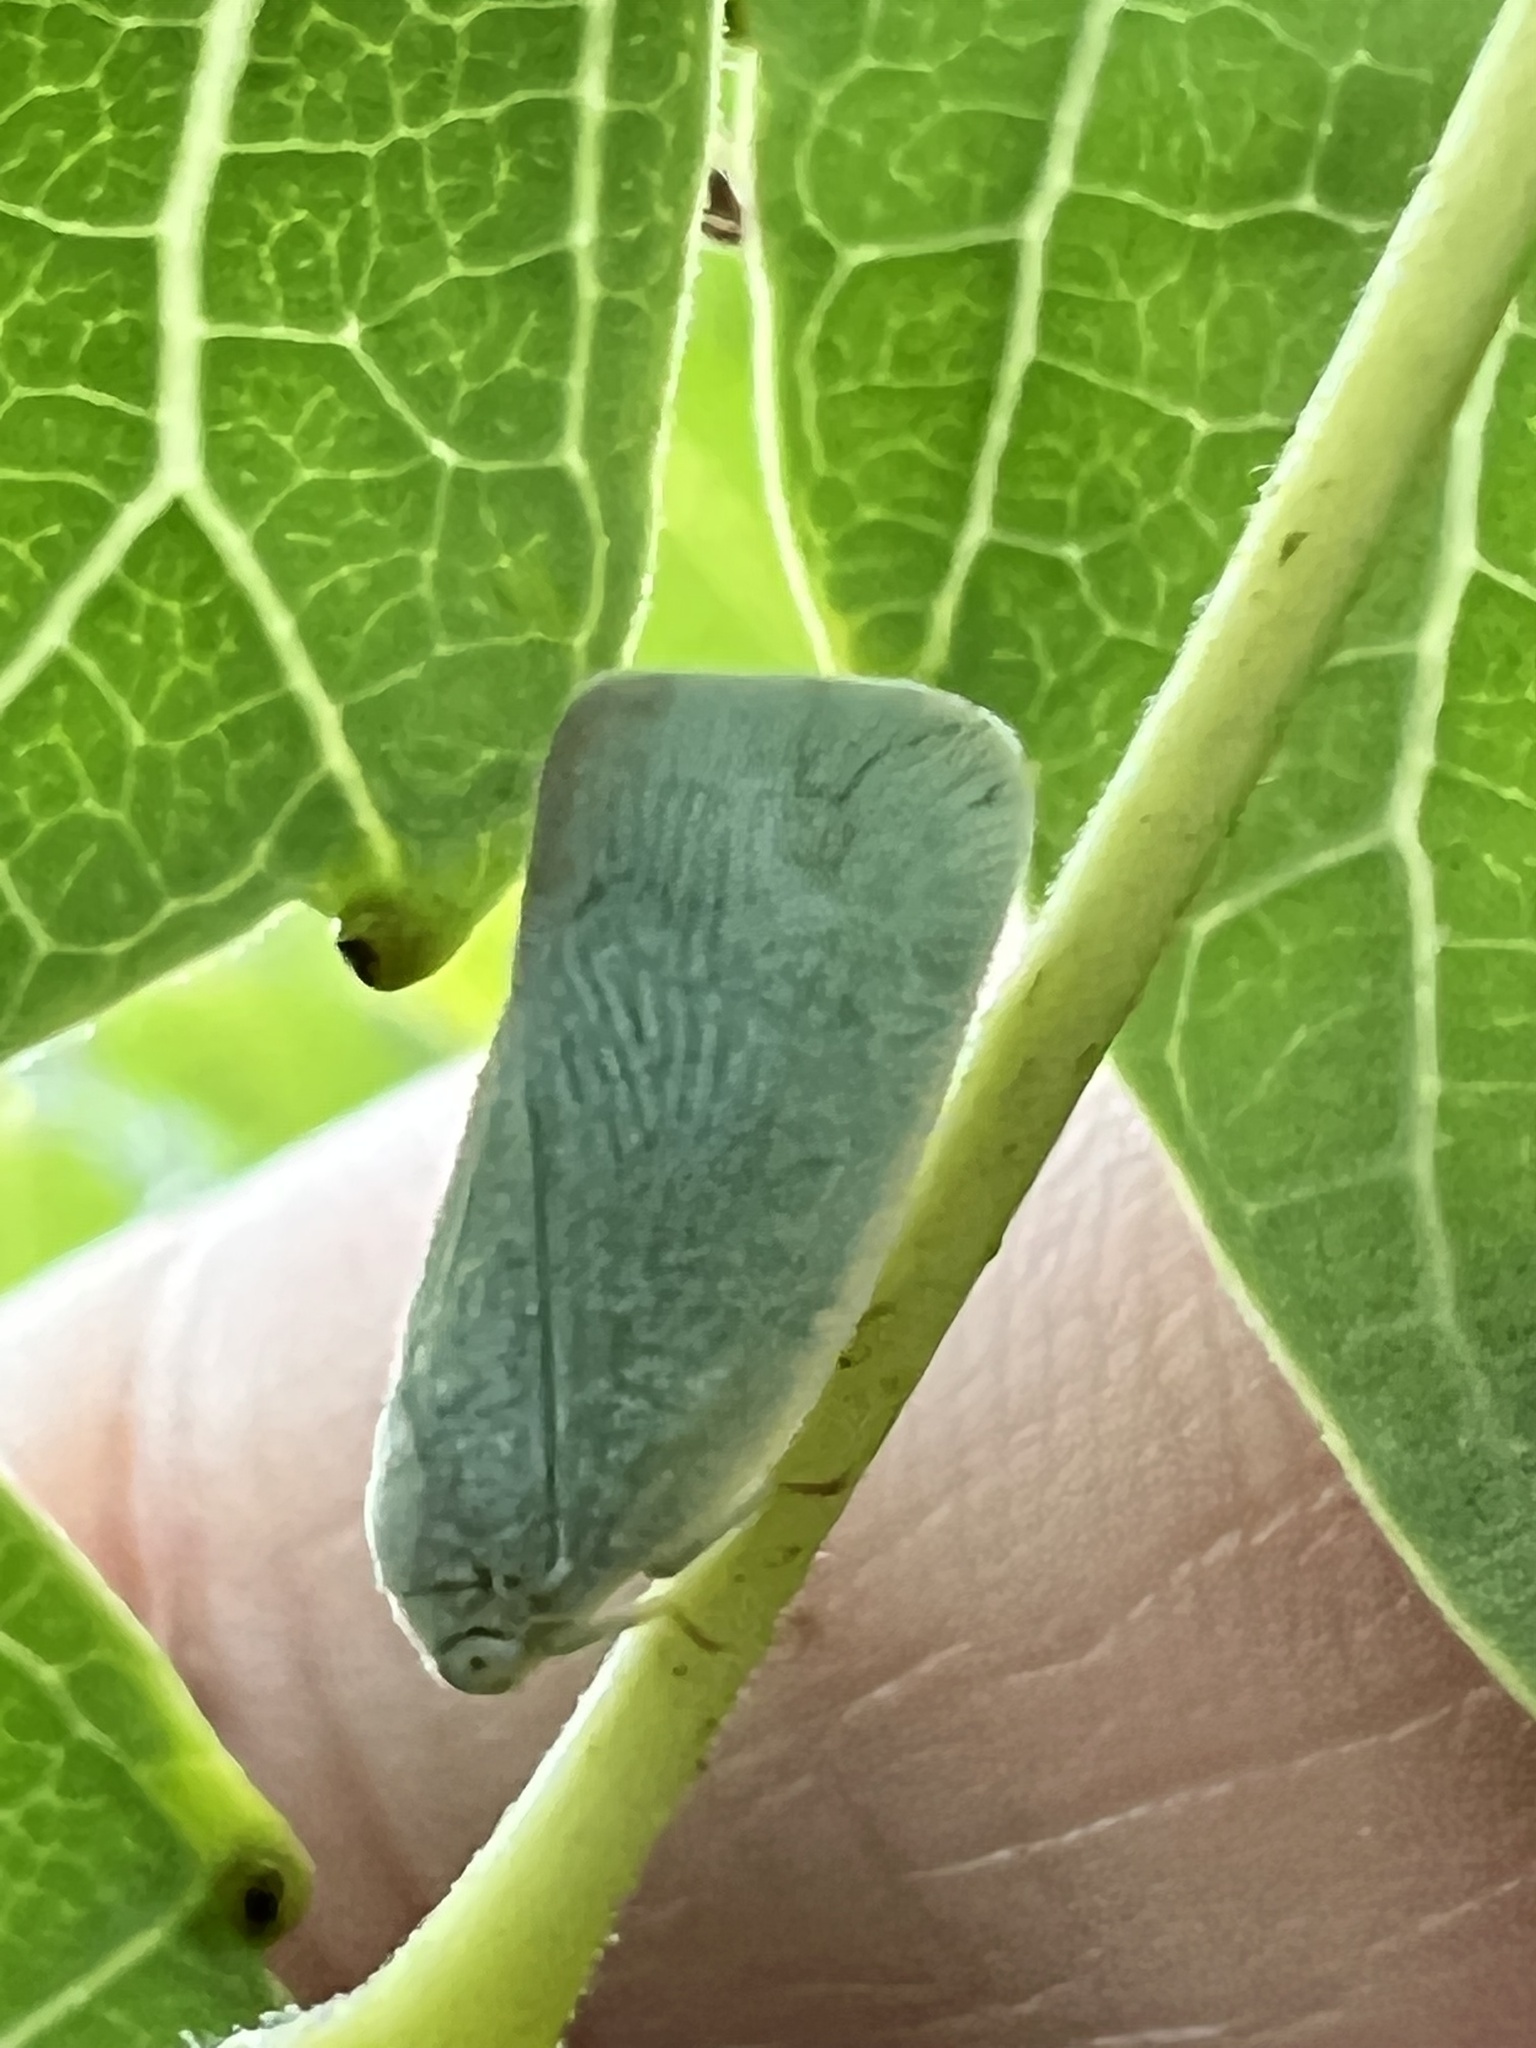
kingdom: Animalia
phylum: Arthropoda
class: Insecta
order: Hemiptera
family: Flatidae
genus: Flatormenis
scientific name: Flatormenis proxima
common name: Northern flatid planthopper
